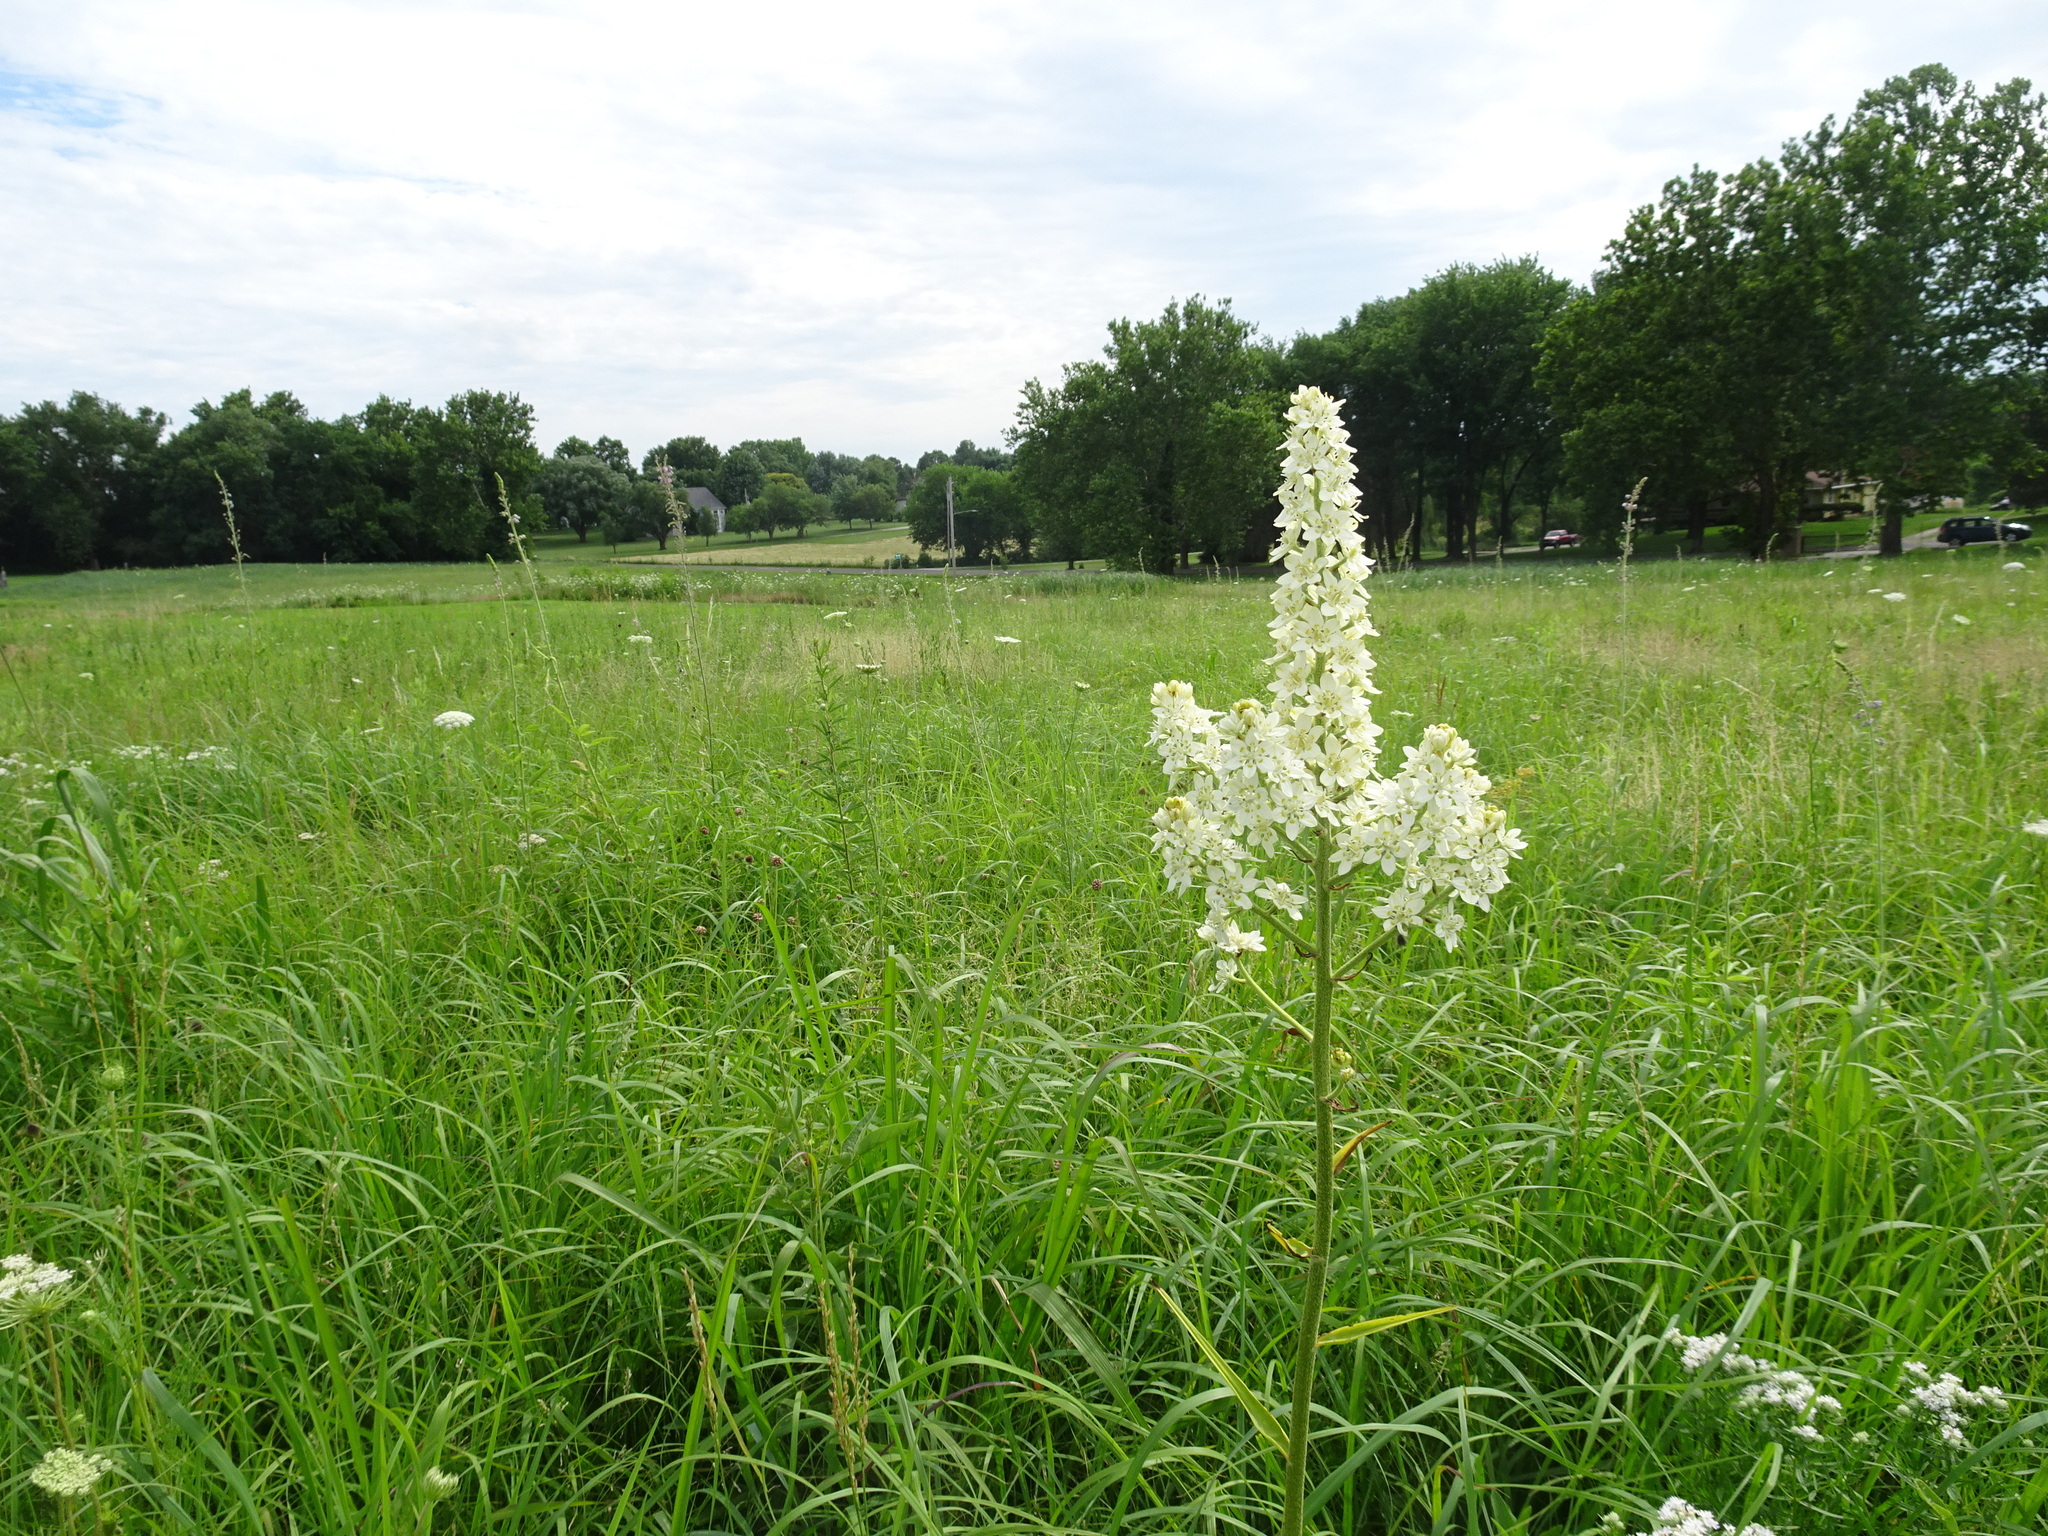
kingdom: Plantae
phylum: Tracheophyta
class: Liliopsida
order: Liliales
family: Melanthiaceae
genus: Melanthium
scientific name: Melanthium virginicum
